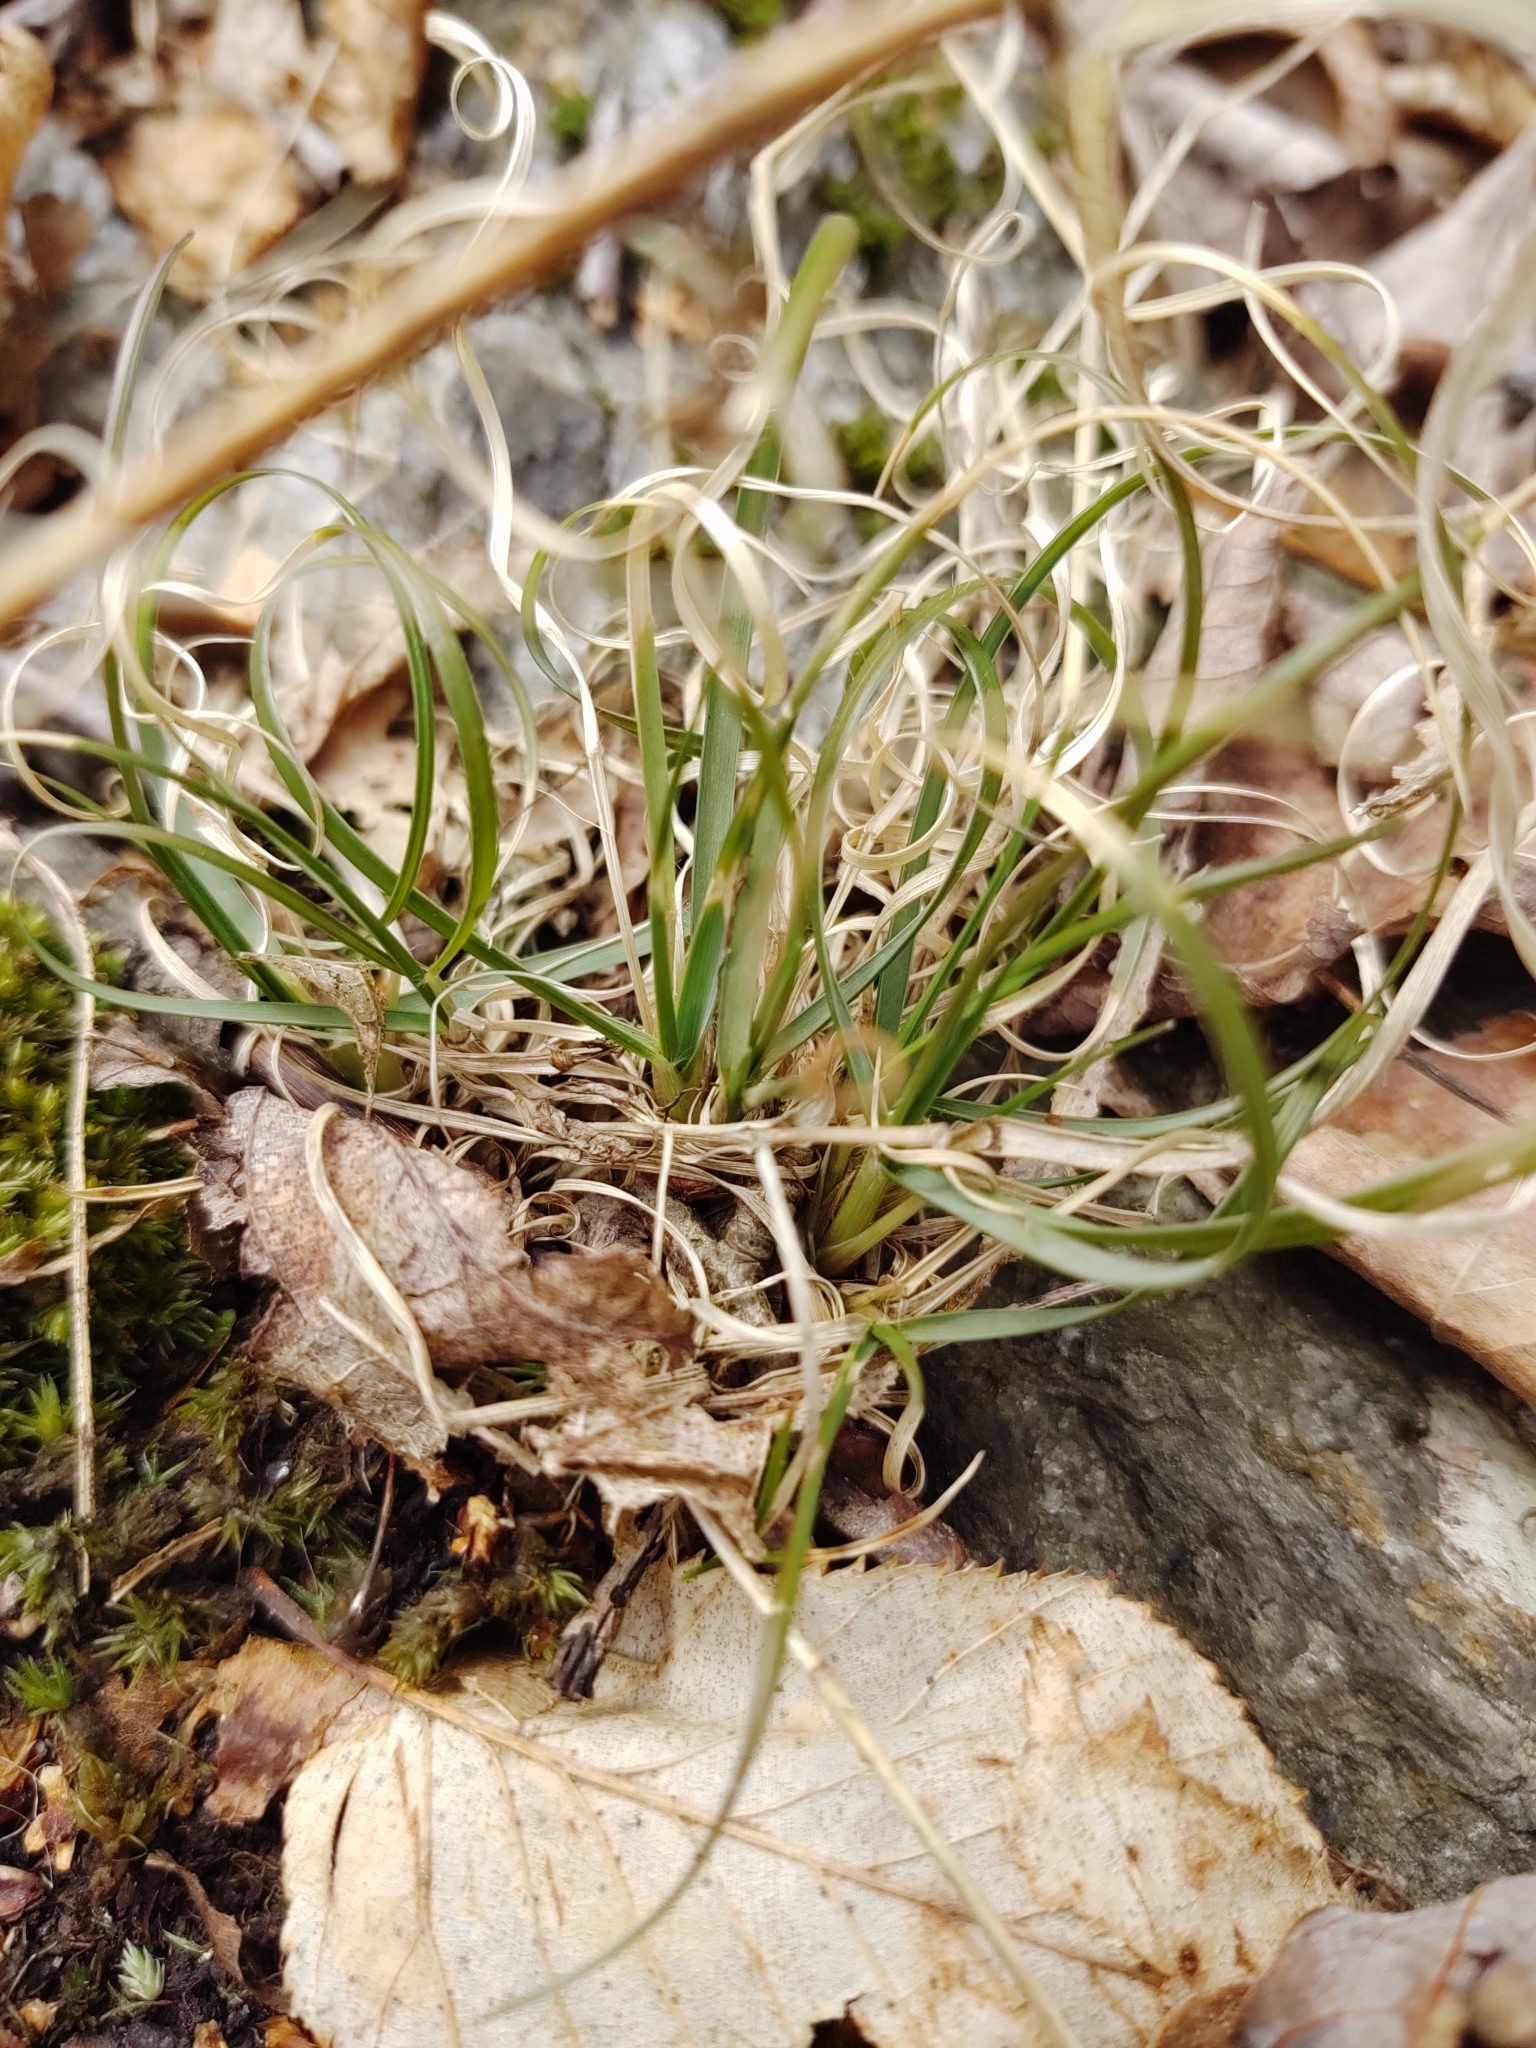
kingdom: Plantae
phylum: Tracheophyta
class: Liliopsida
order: Poales
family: Poaceae
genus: Danthonia
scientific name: Danthonia spicata
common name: Common wild oatgrass
